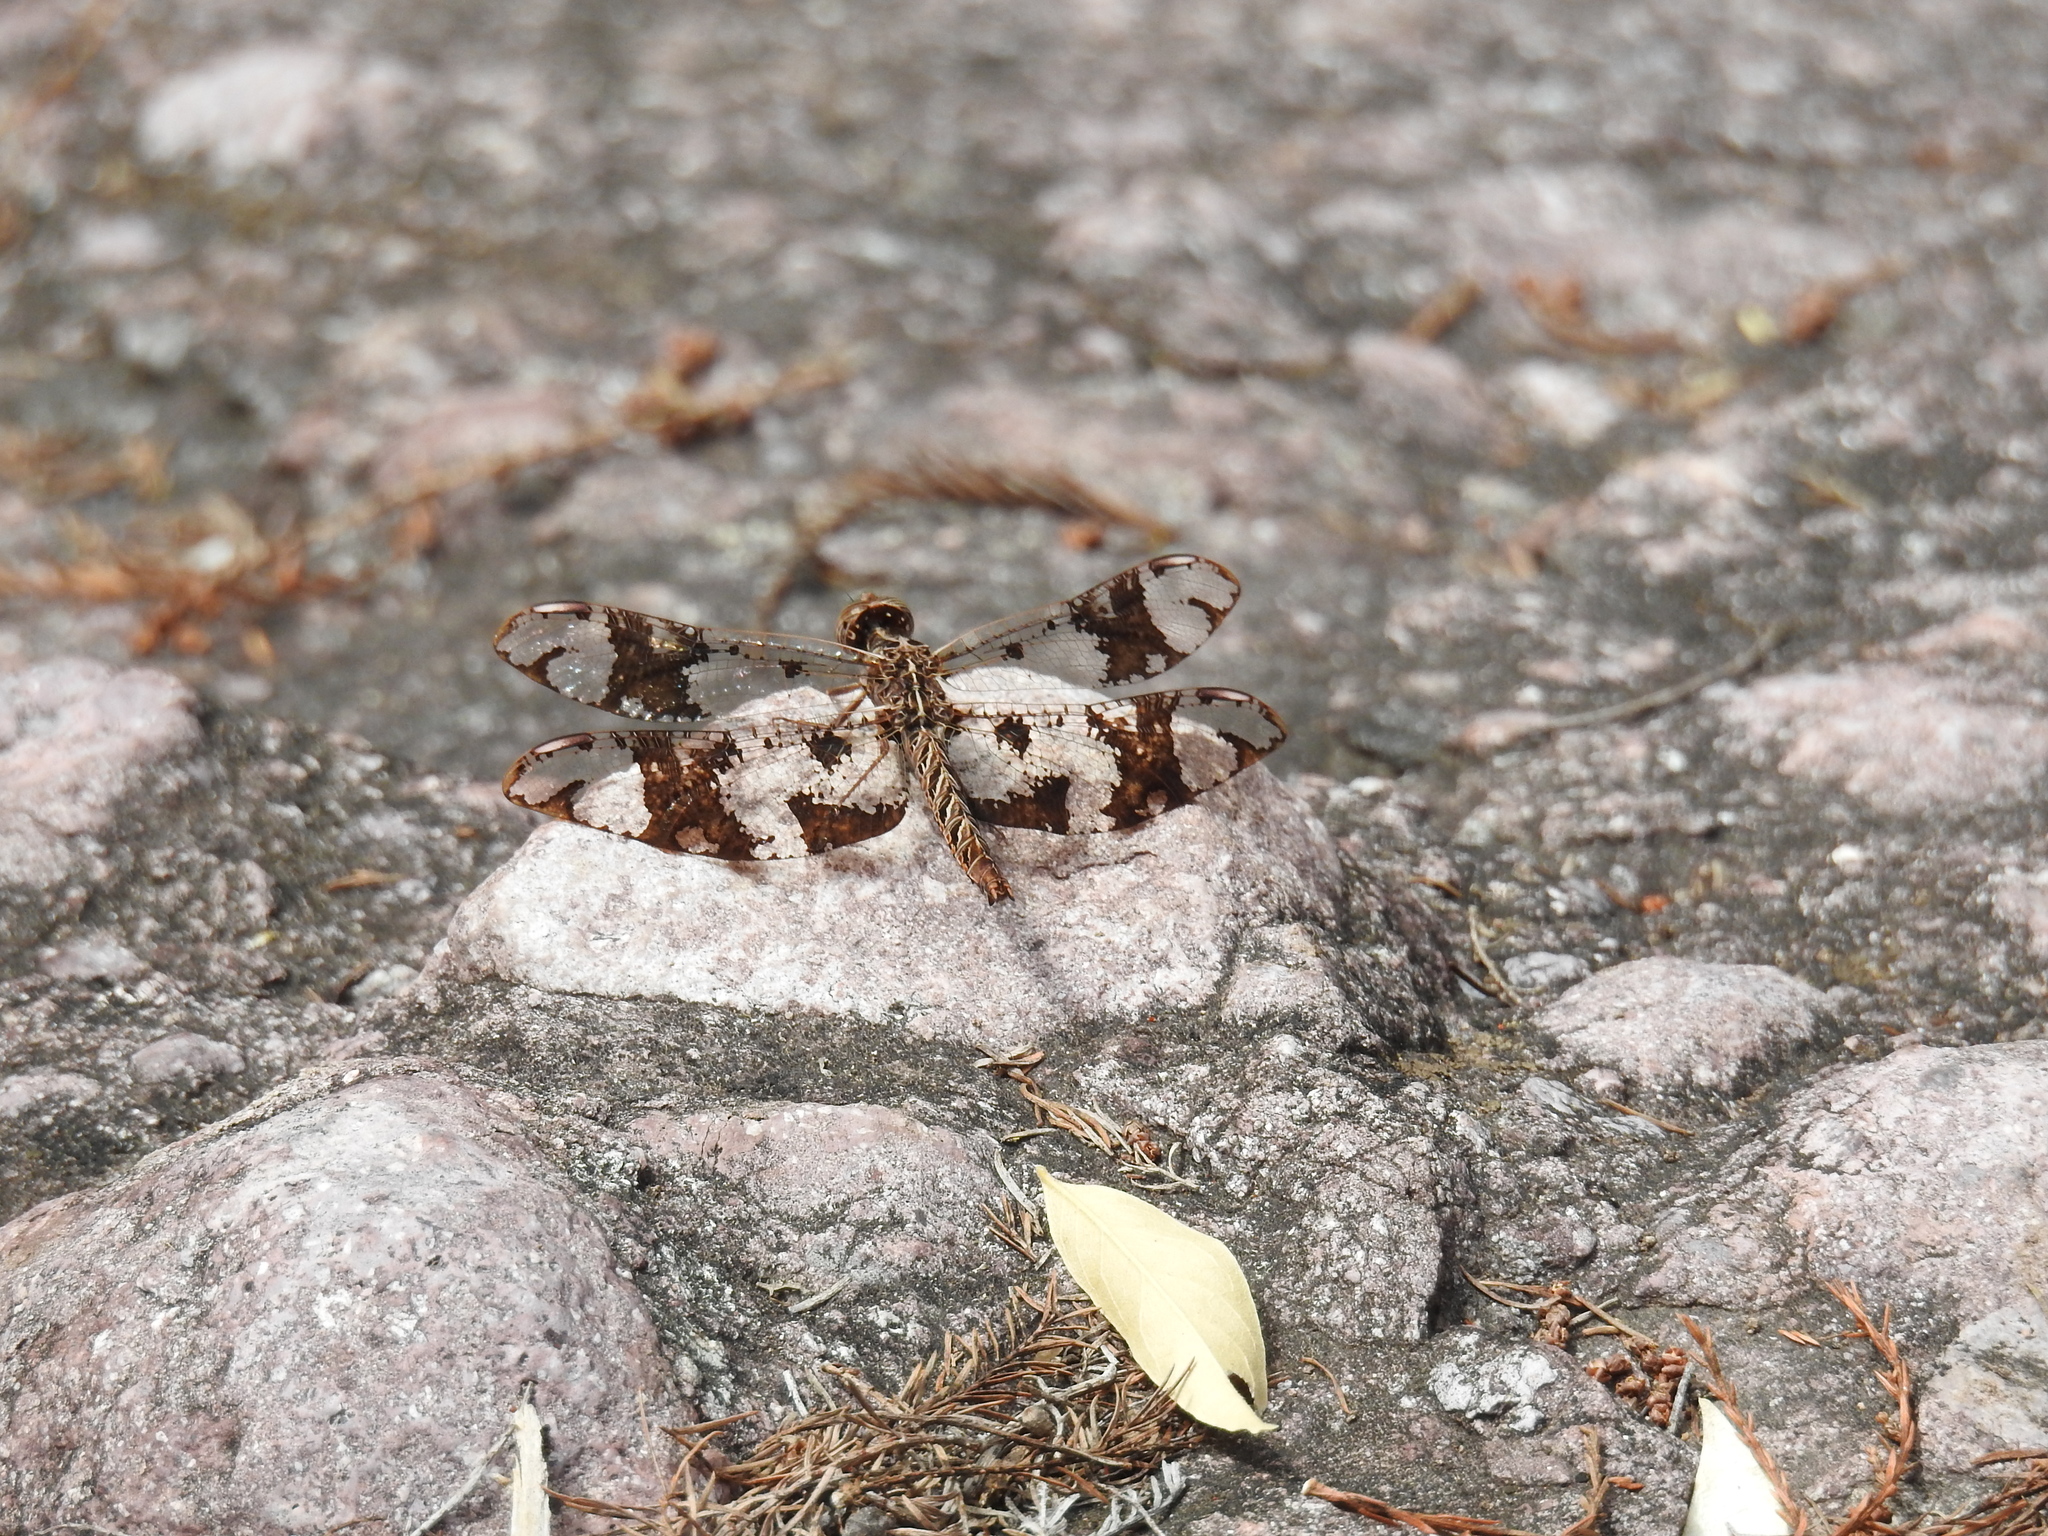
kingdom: Animalia
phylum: Arthropoda
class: Insecta
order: Odonata
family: Libellulidae
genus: Pseudoleon
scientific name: Pseudoleon superbus
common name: Filigree skimmer
